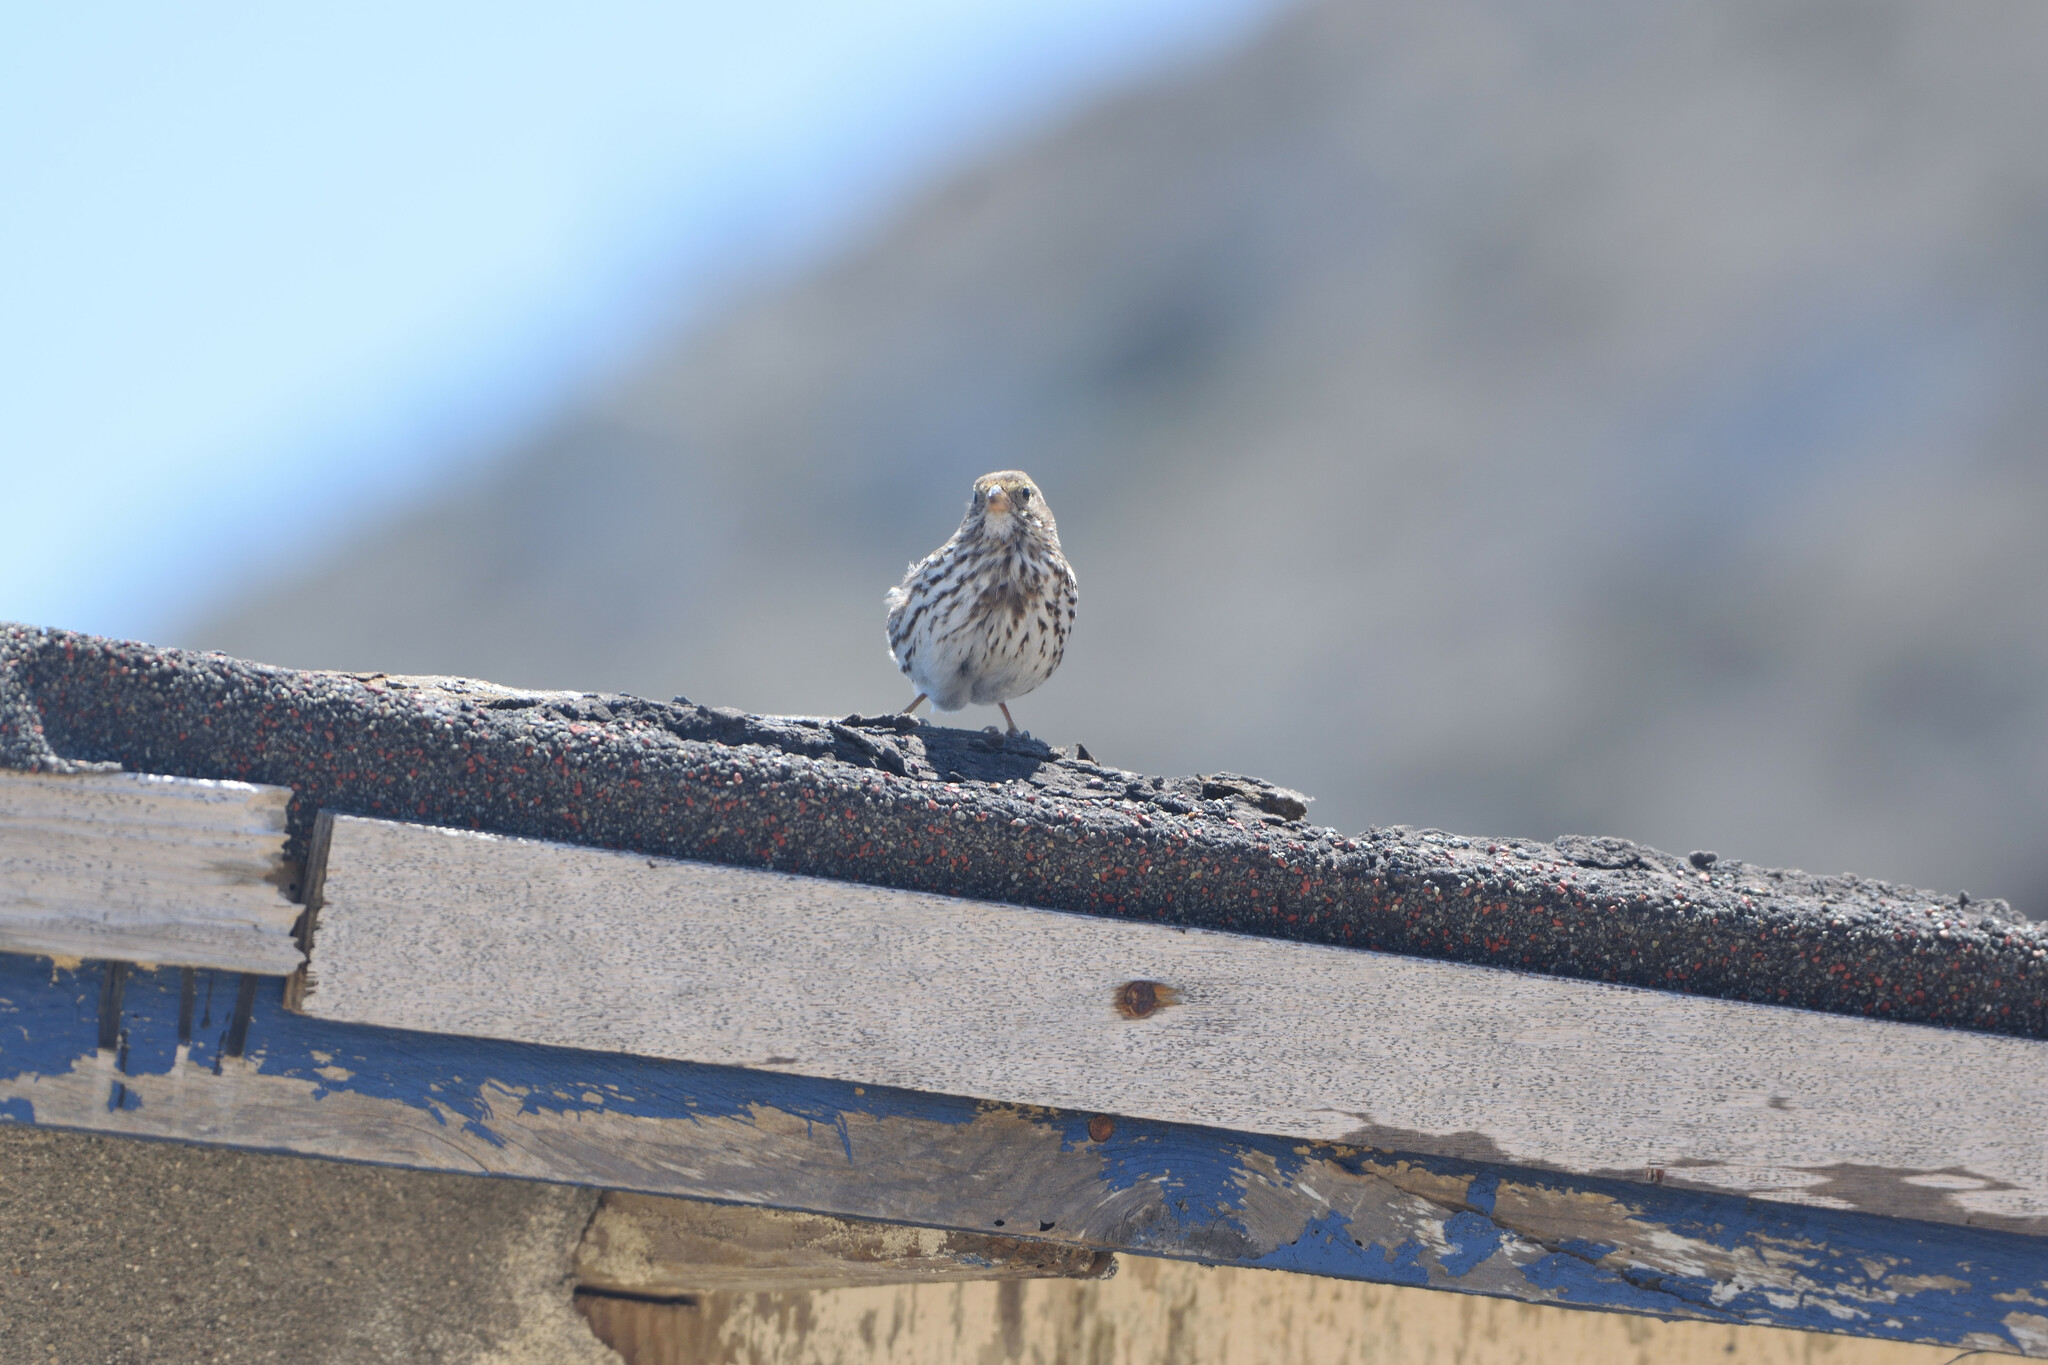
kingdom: Animalia
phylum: Chordata
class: Aves
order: Passeriformes
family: Passerellidae
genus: Passerculus
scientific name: Passerculus sandwichensis
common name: Savannah sparrow
